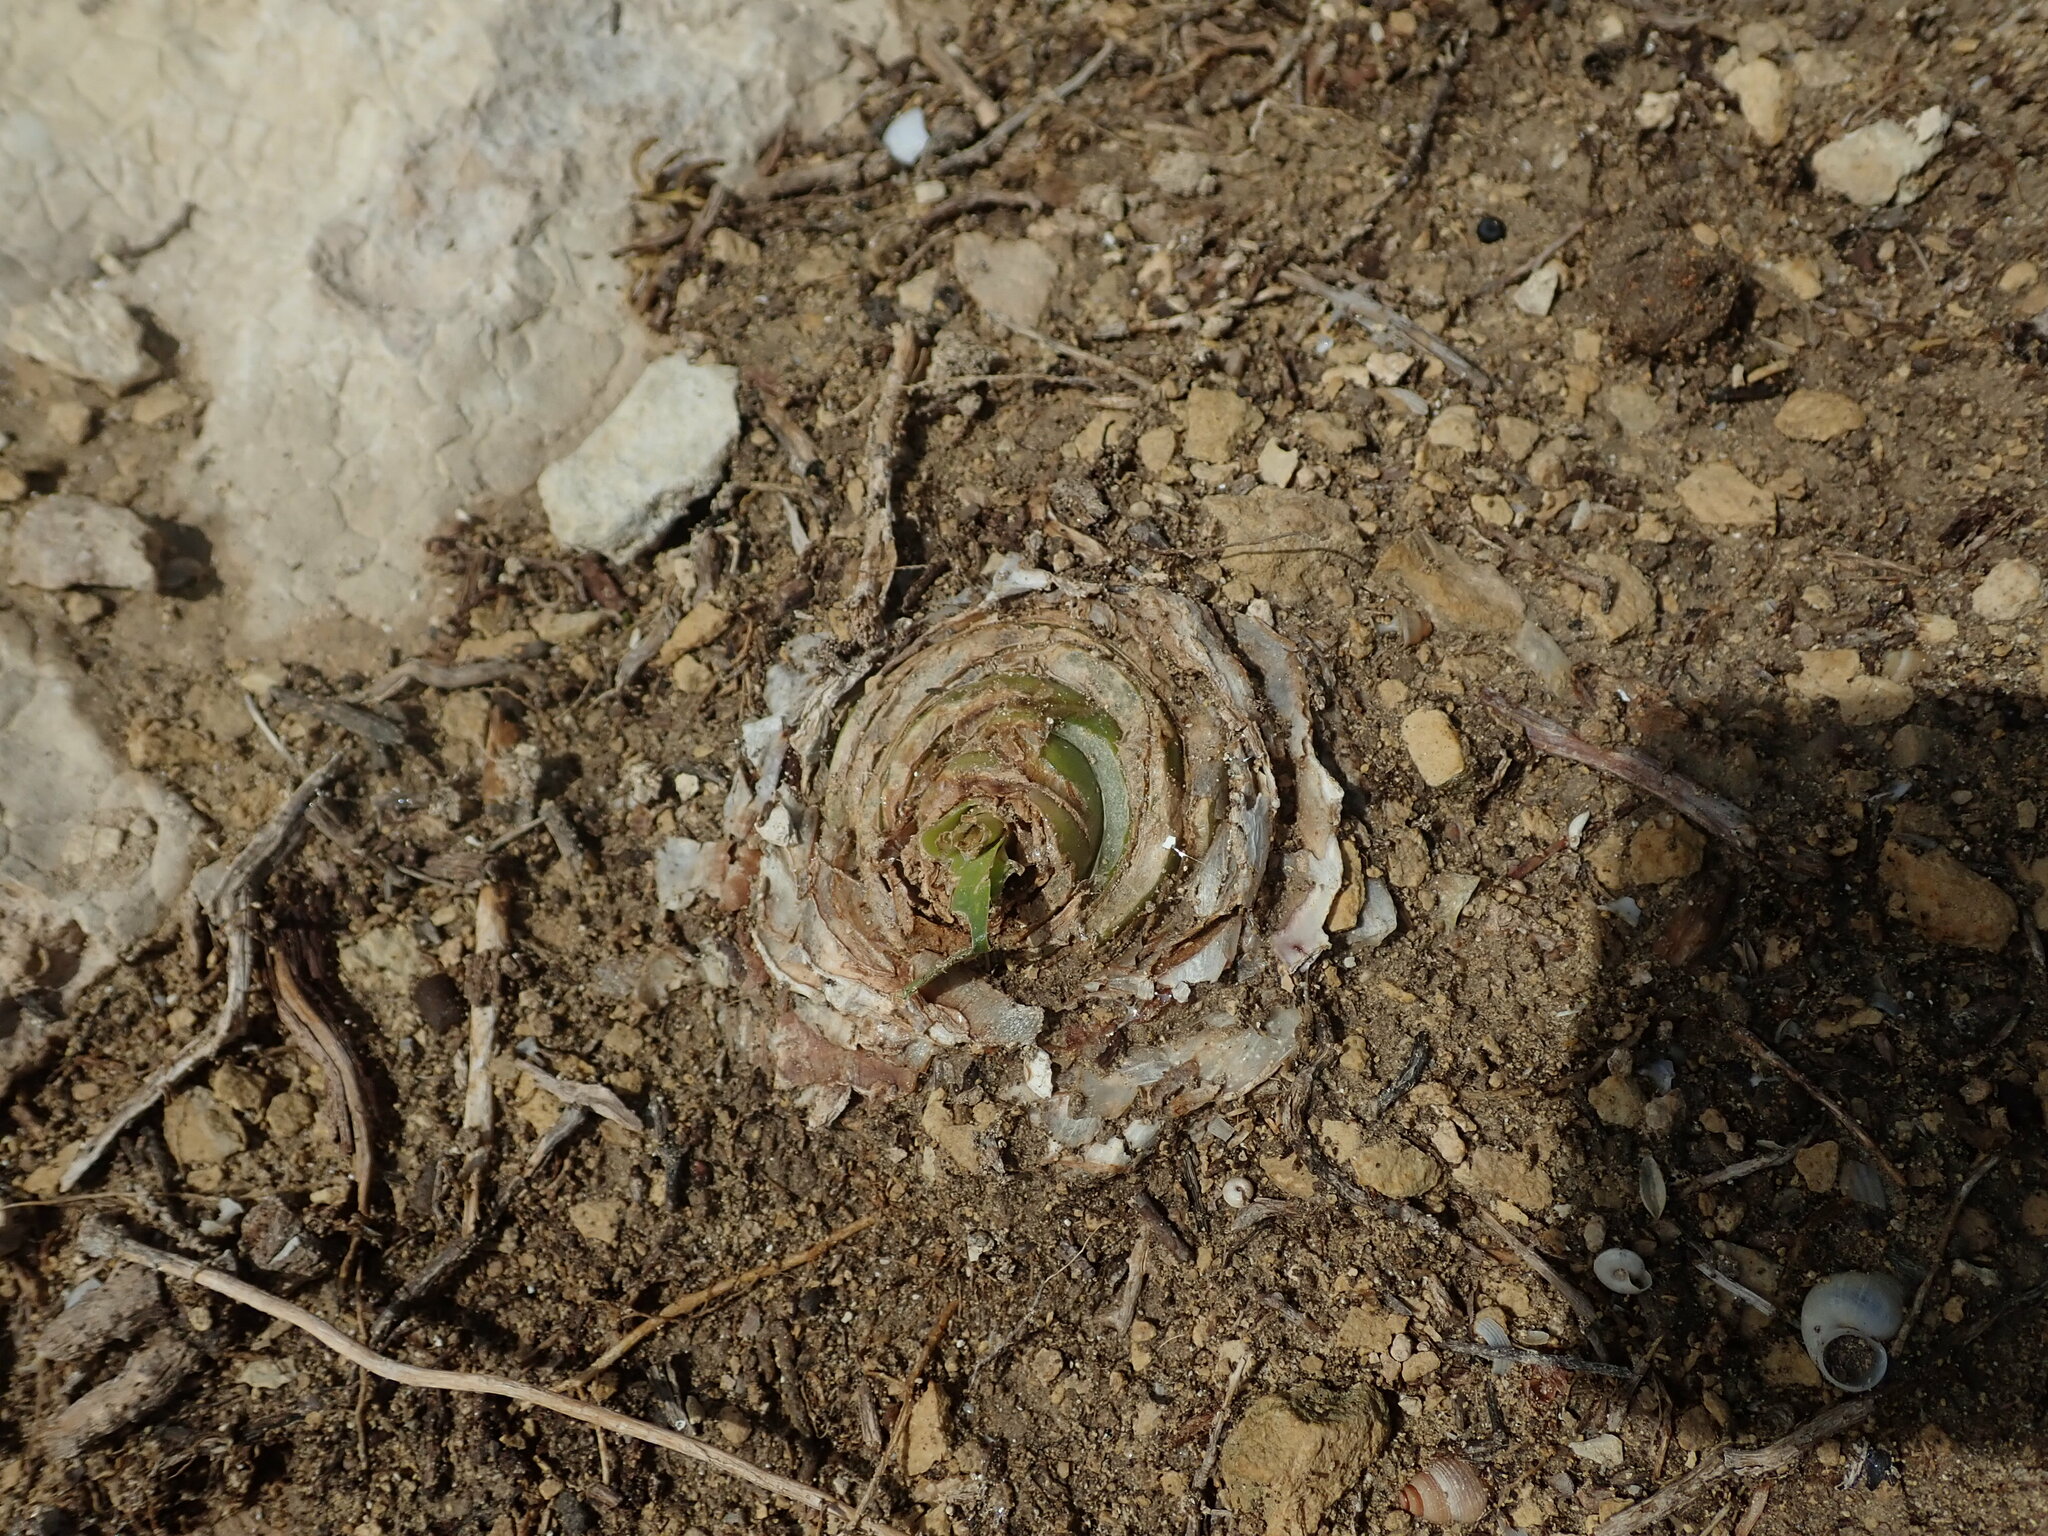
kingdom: Plantae
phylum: Tracheophyta
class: Liliopsida
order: Asparagales
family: Asparagaceae
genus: Drimia
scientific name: Drimia pancration
